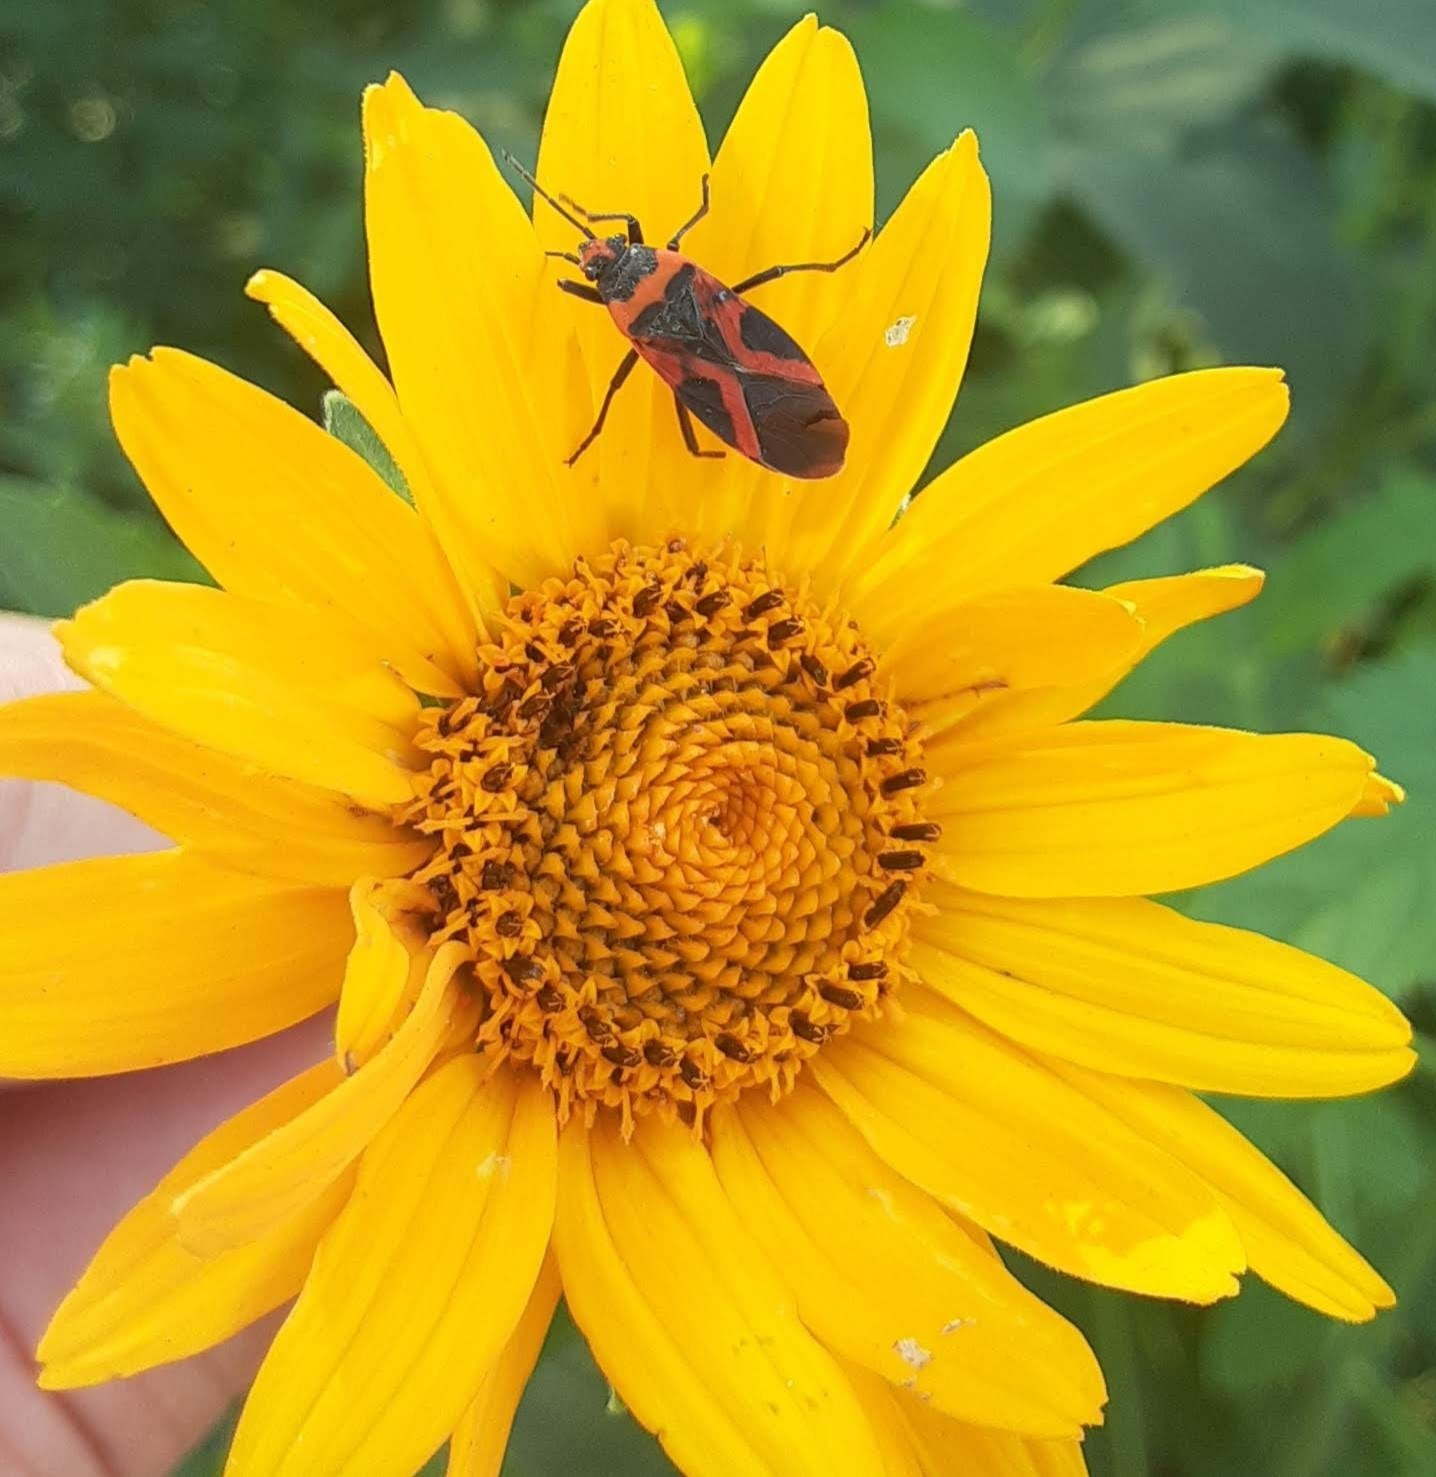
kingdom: Animalia
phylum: Arthropoda
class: Insecta
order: Hemiptera
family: Lygaeidae
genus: Lygaeus
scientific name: Lygaeus turcicus
